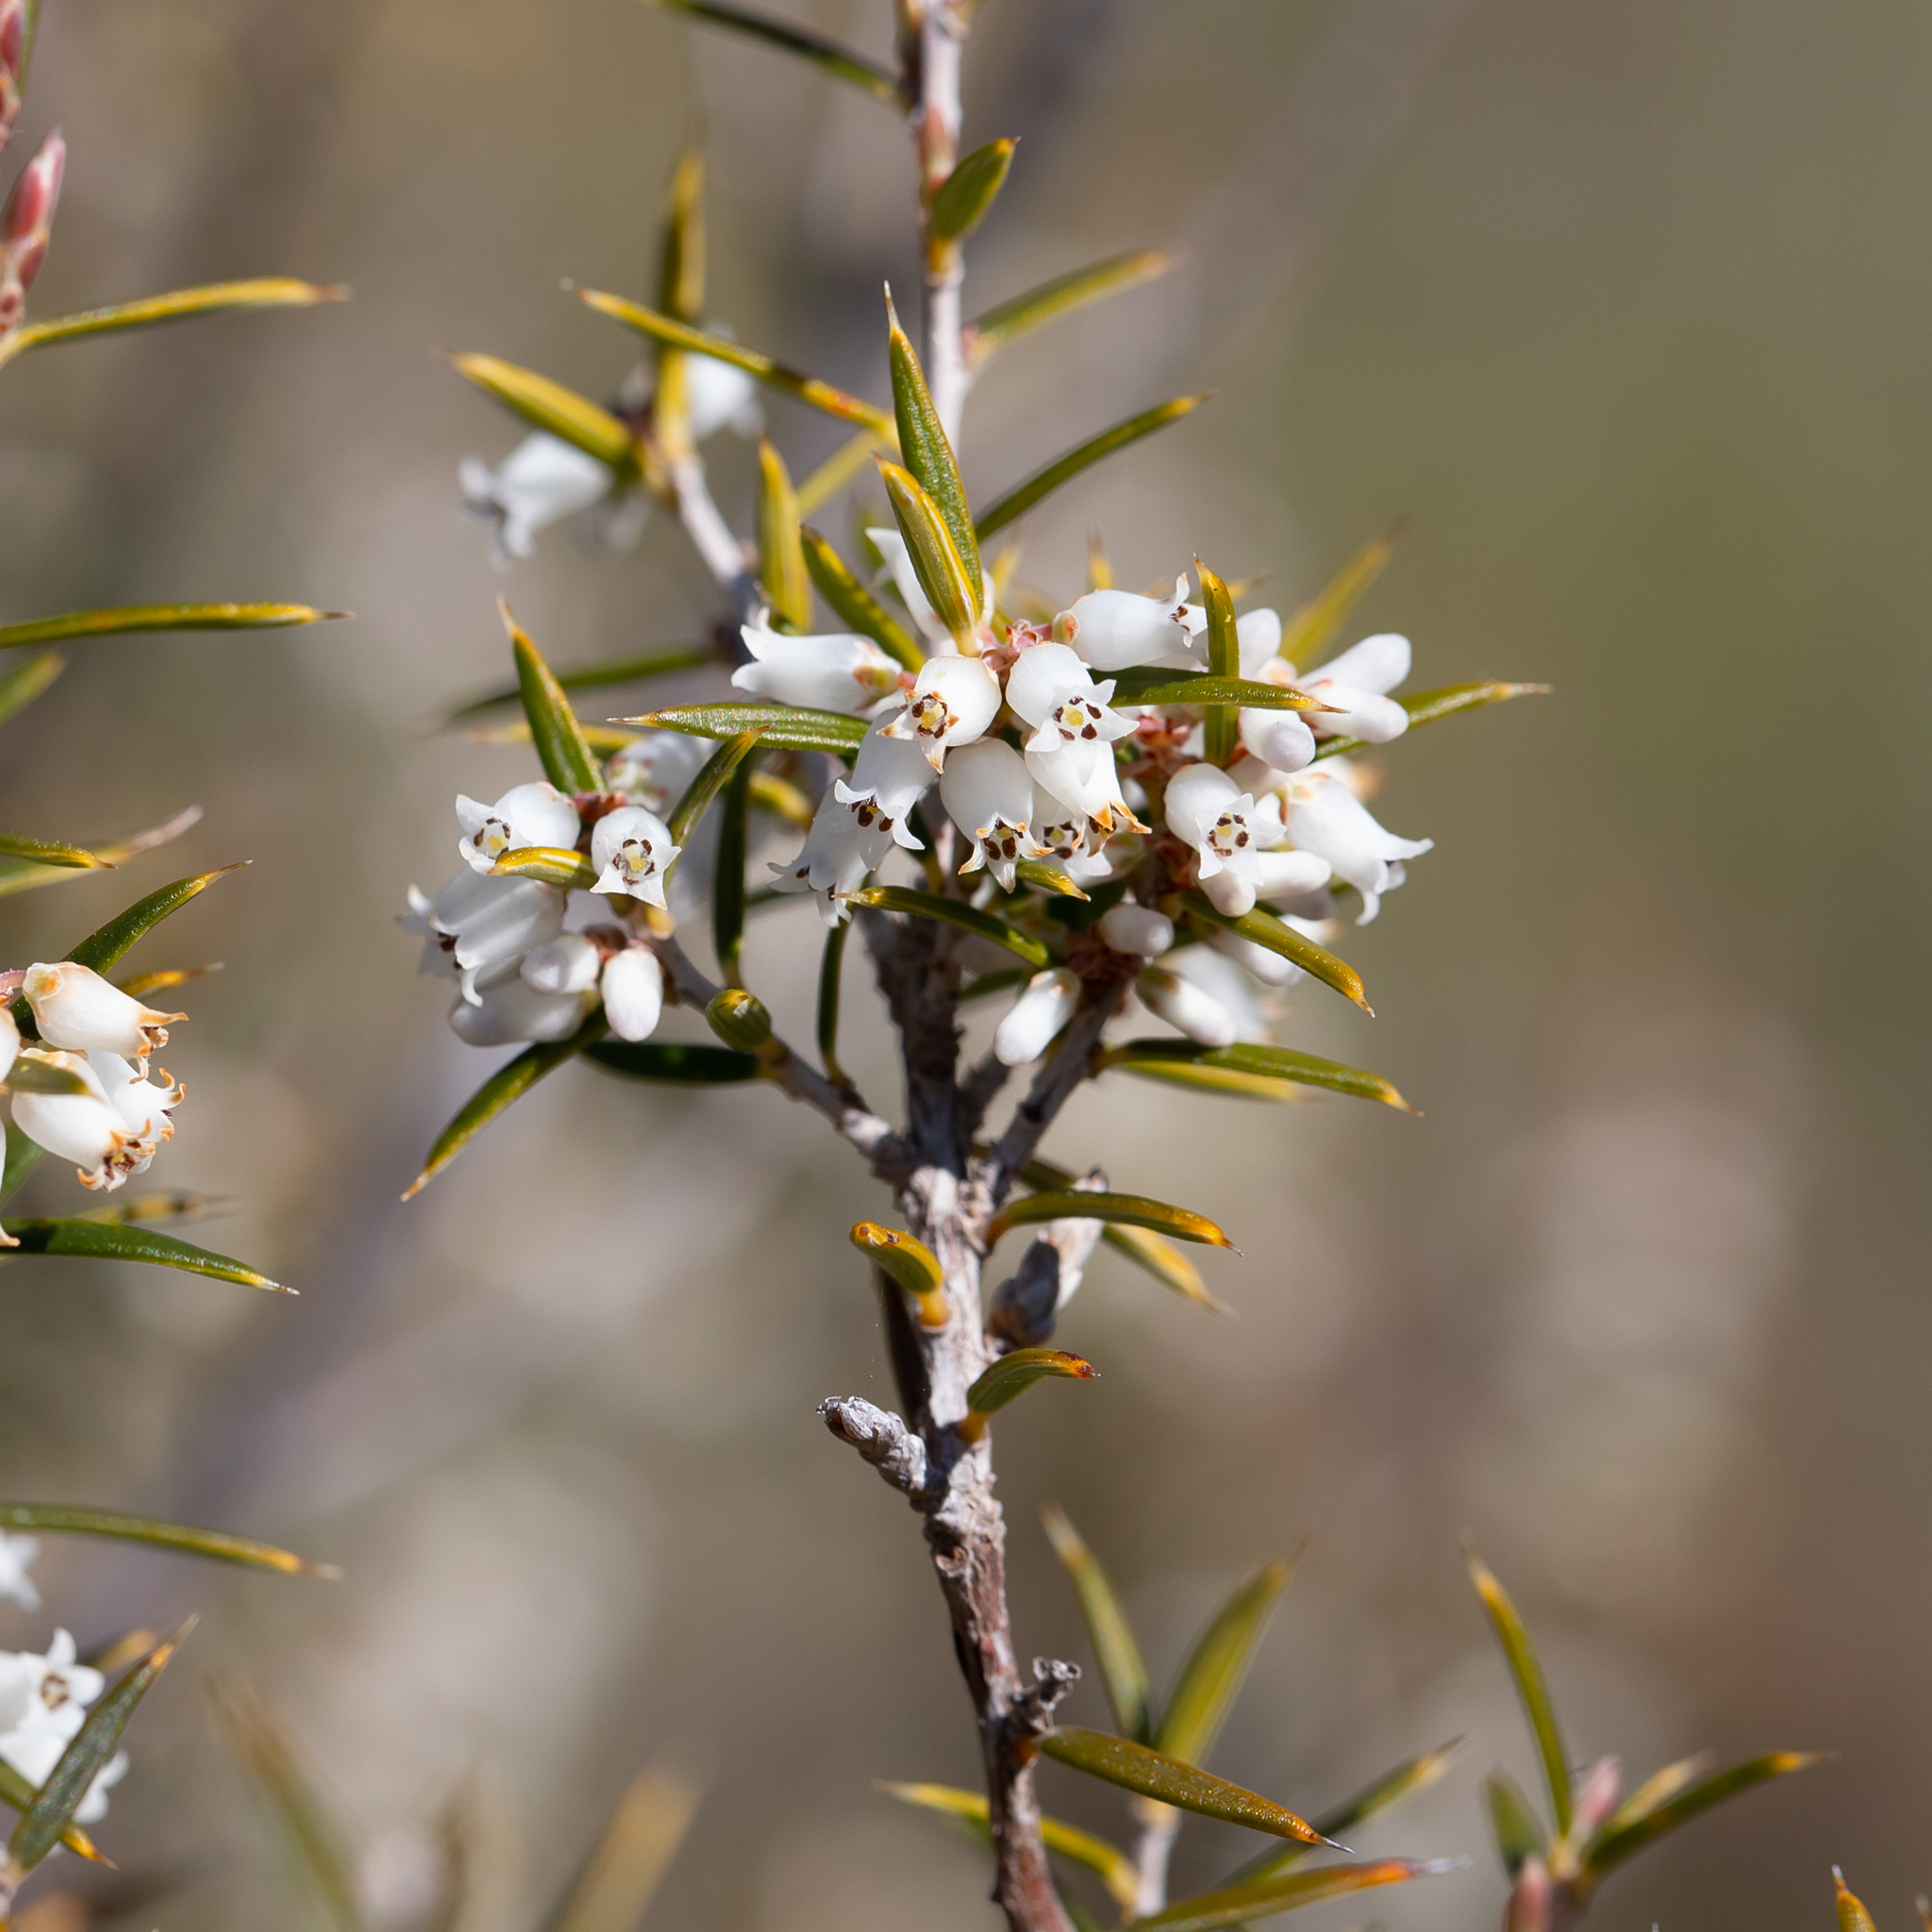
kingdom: Plantae
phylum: Tracheophyta
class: Magnoliopsida
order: Ericales
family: Ericaceae
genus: Lissanthe
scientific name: Lissanthe strigosa
